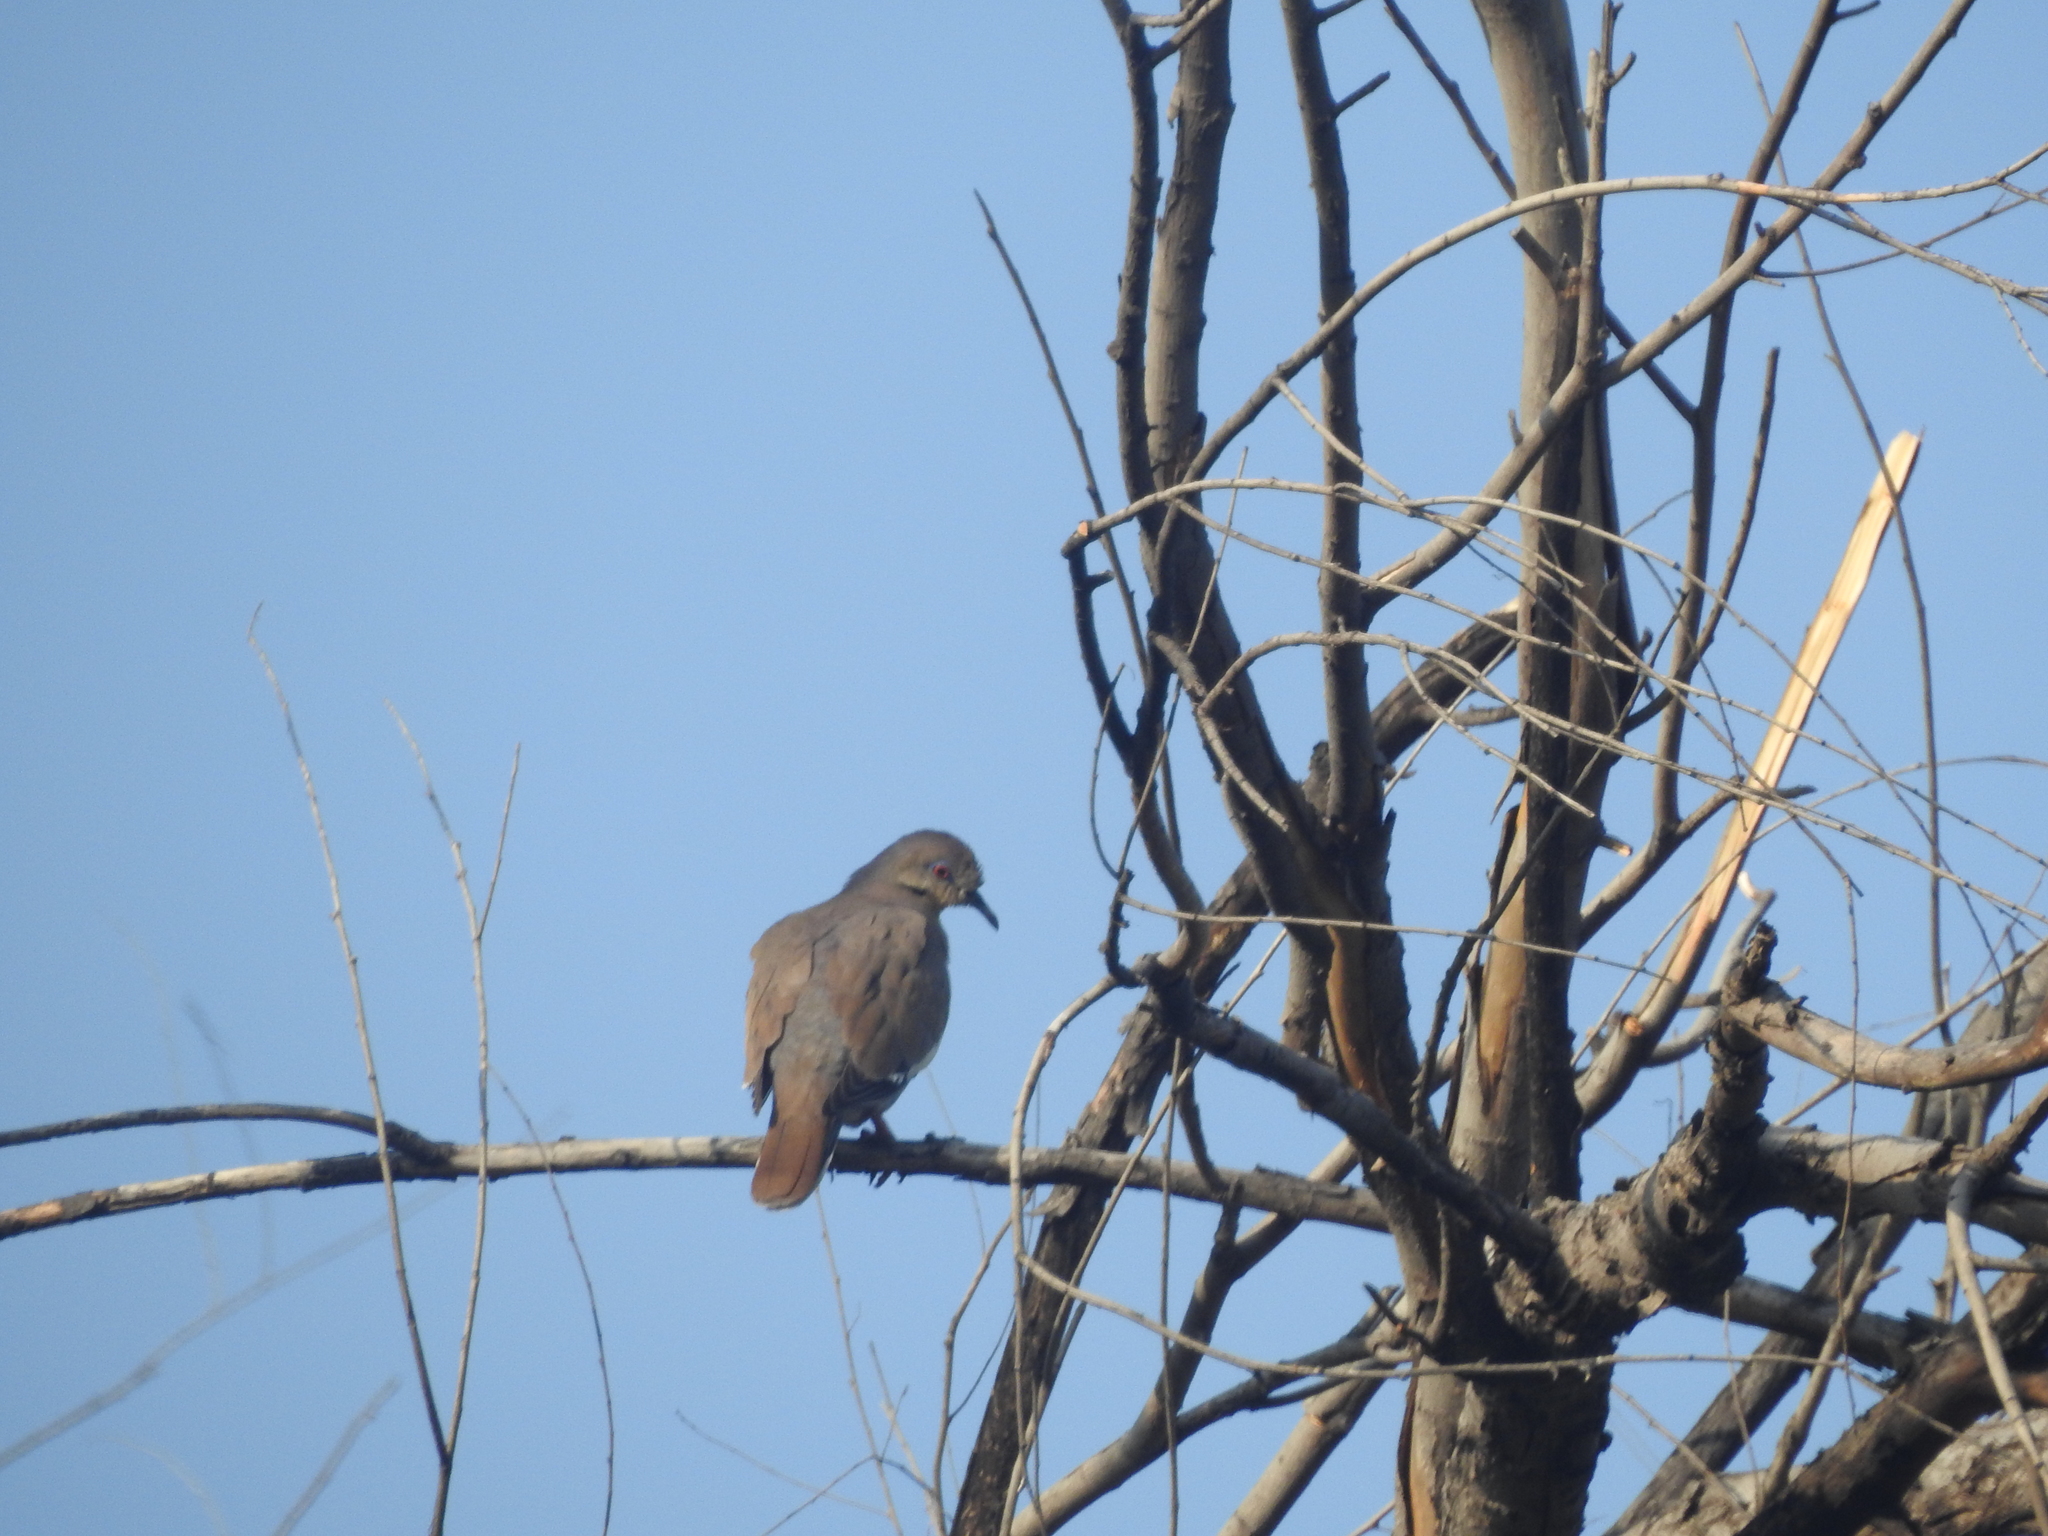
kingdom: Animalia
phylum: Chordata
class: Aves
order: Columbiformes
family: Columbidae
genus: Zenaida
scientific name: Zenaida asiatica
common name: White-winged dove
